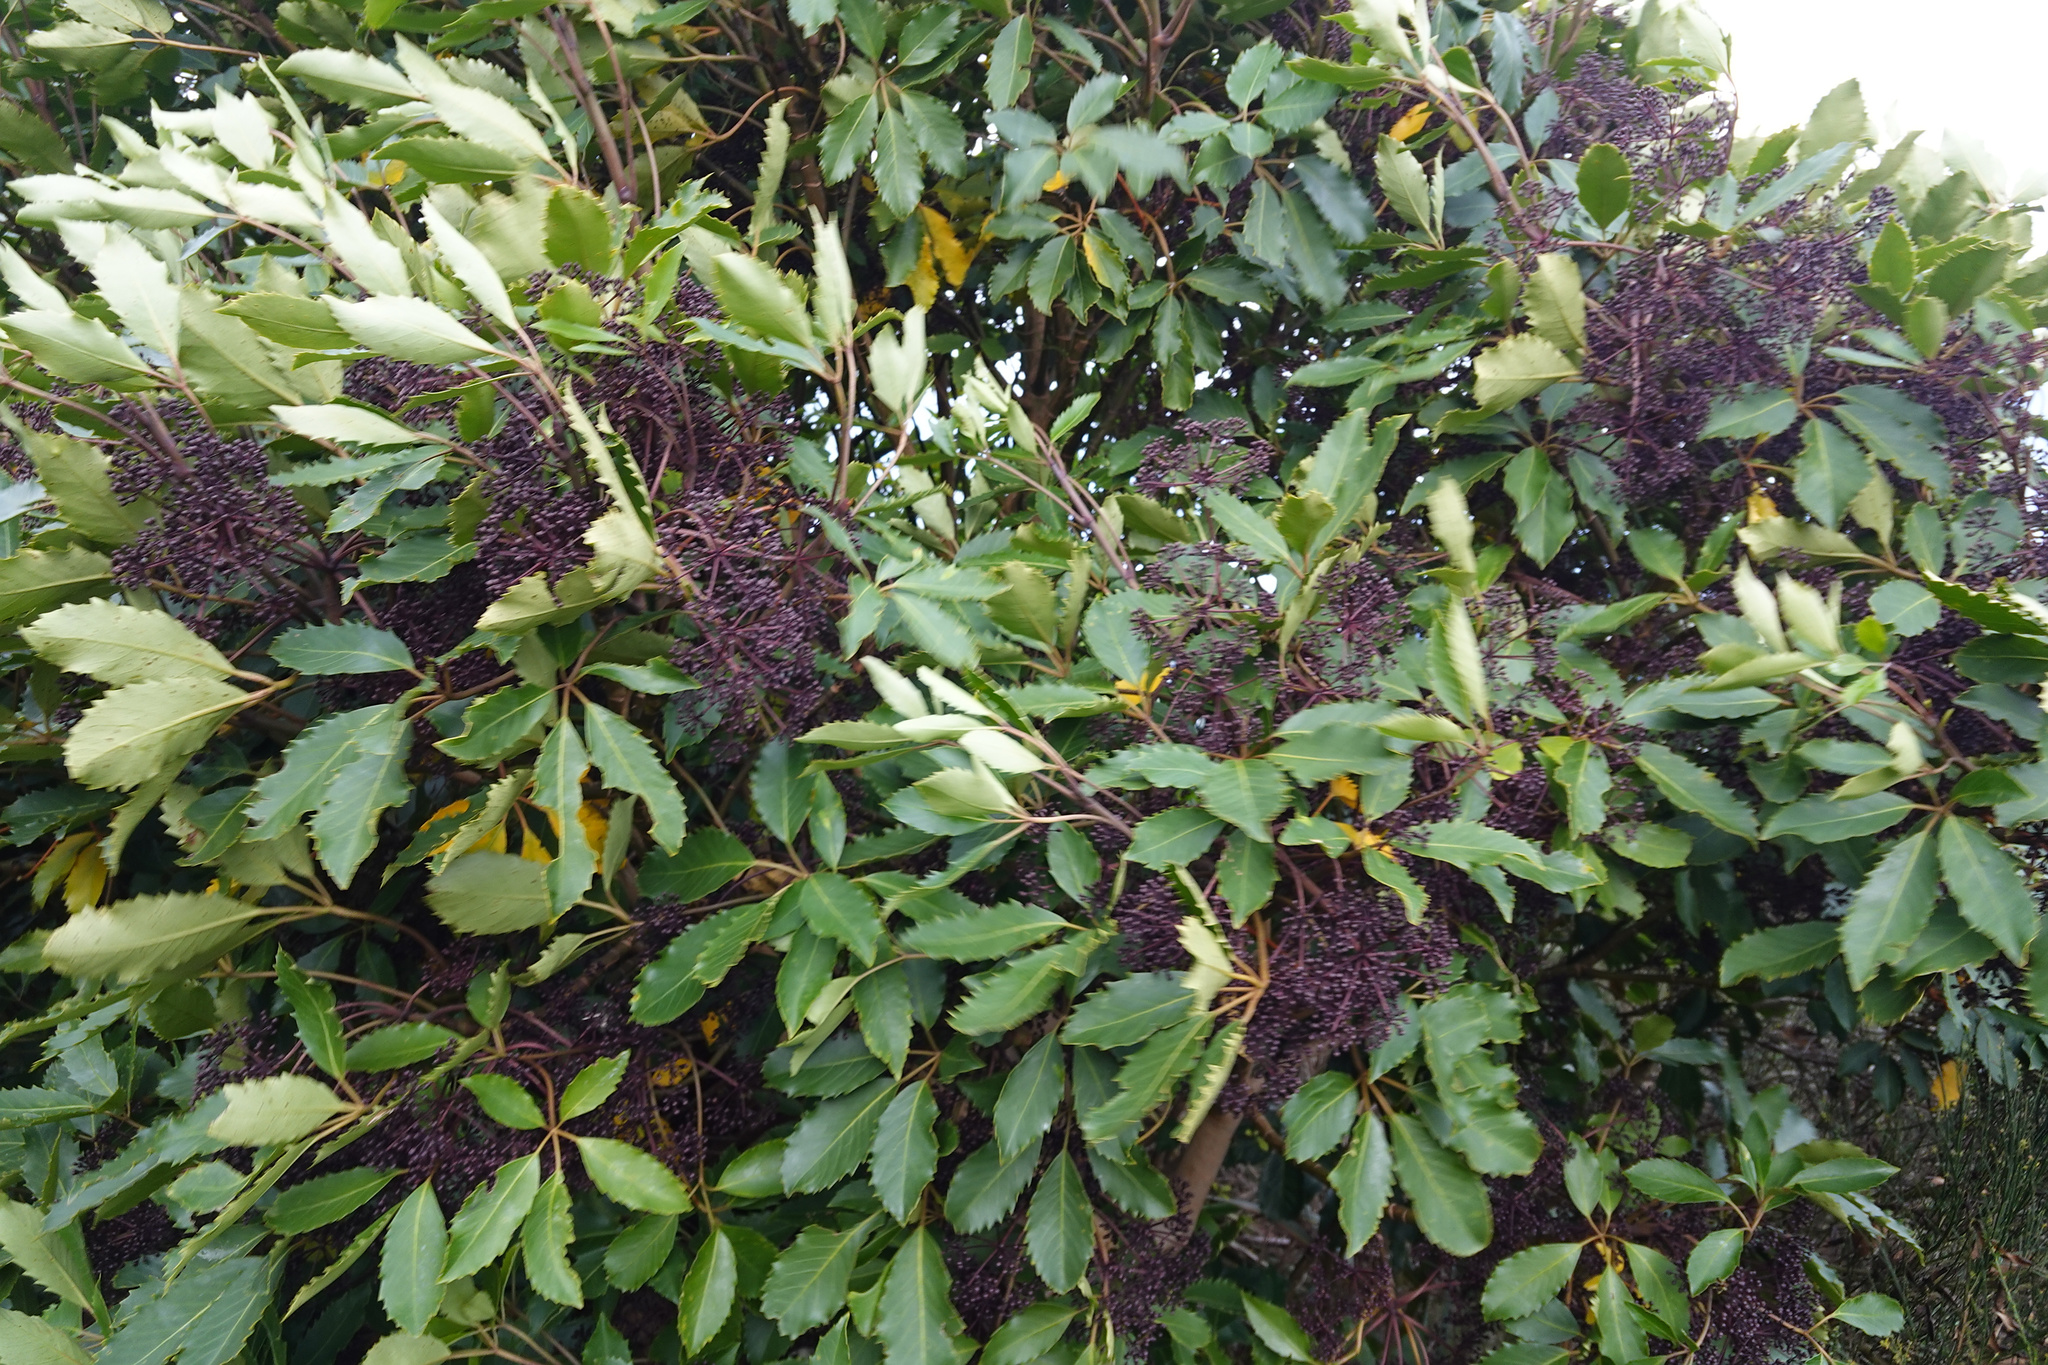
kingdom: Plantae
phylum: Tracheophyta
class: Magnoliopsida
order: Apiales
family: Araliaceae
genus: Neopanax
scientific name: Neopanax arboreus
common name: Five-fingers
